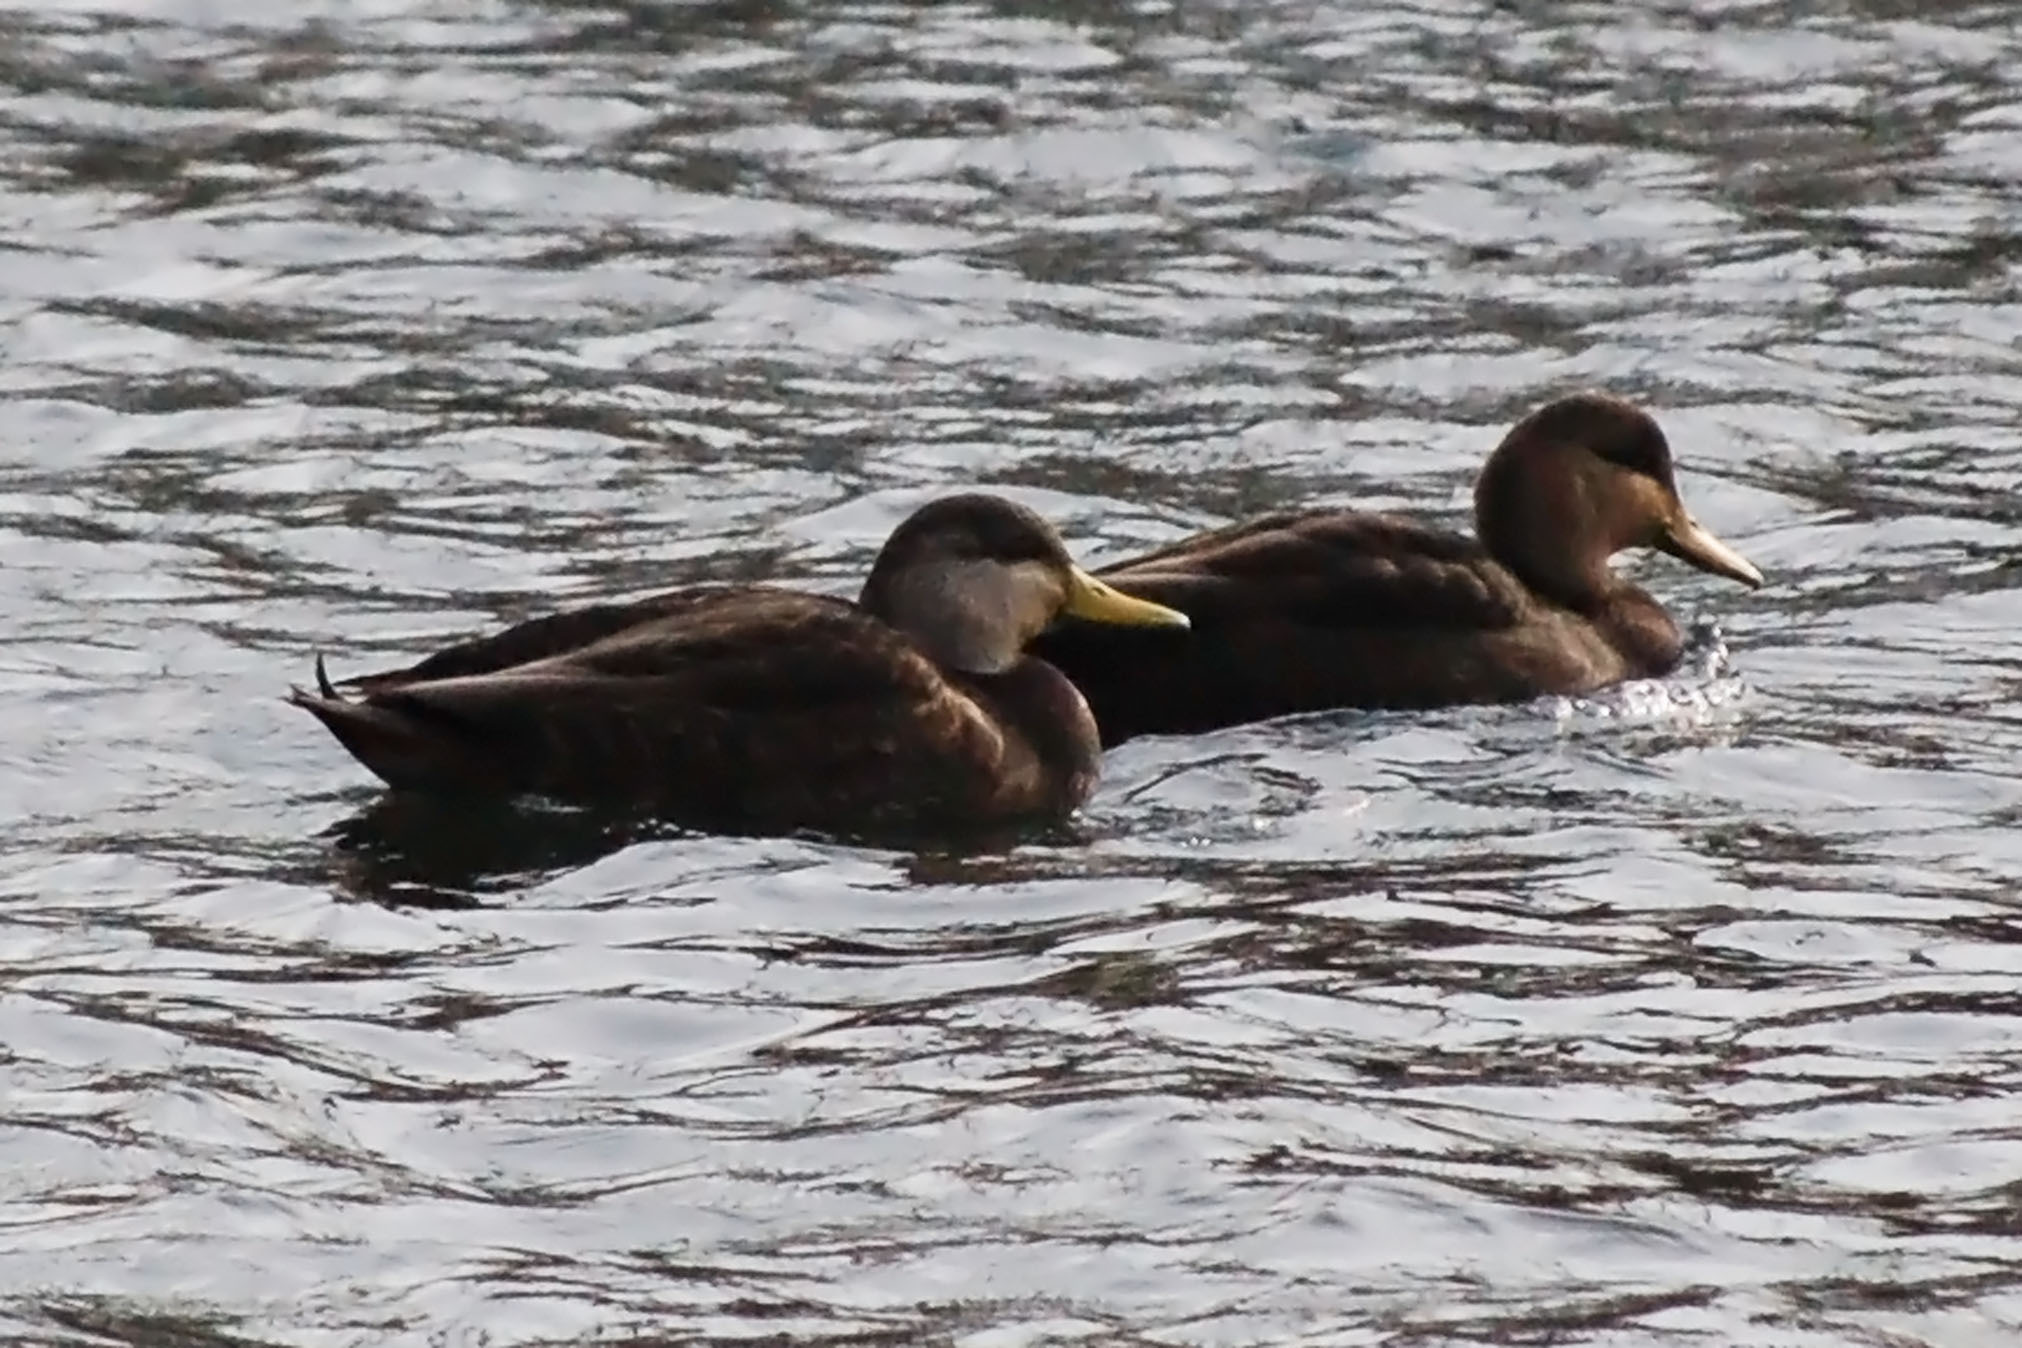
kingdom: Animalia
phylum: Chordata
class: Aves
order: Anseriformes
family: Anatidae
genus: Anas
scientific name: Anas
